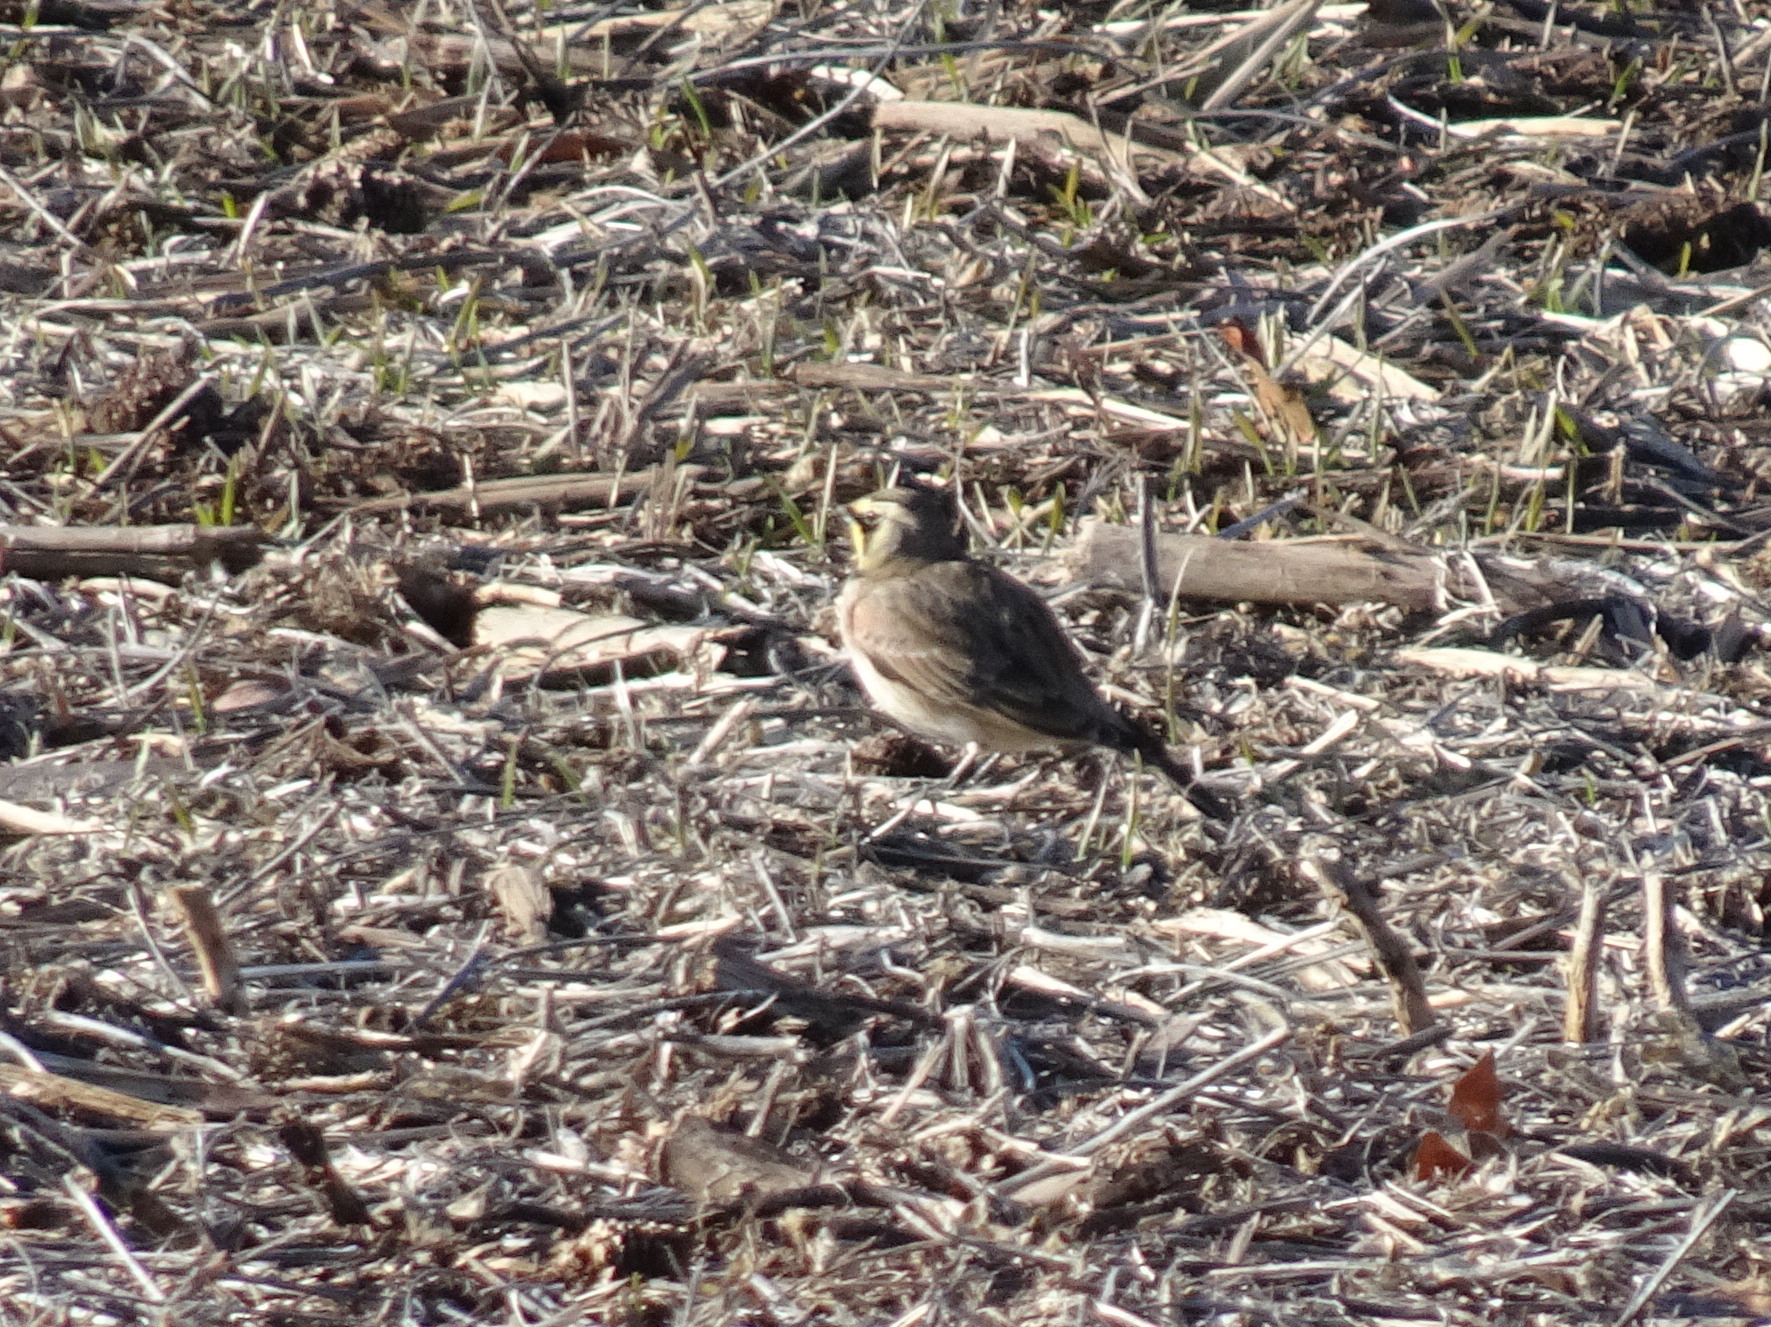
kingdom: Animalia
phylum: Chordata
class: Aves
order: Passeriformes
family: Alaudidae
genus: Eremophila
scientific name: Eremophila alpestris
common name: Horned lark
